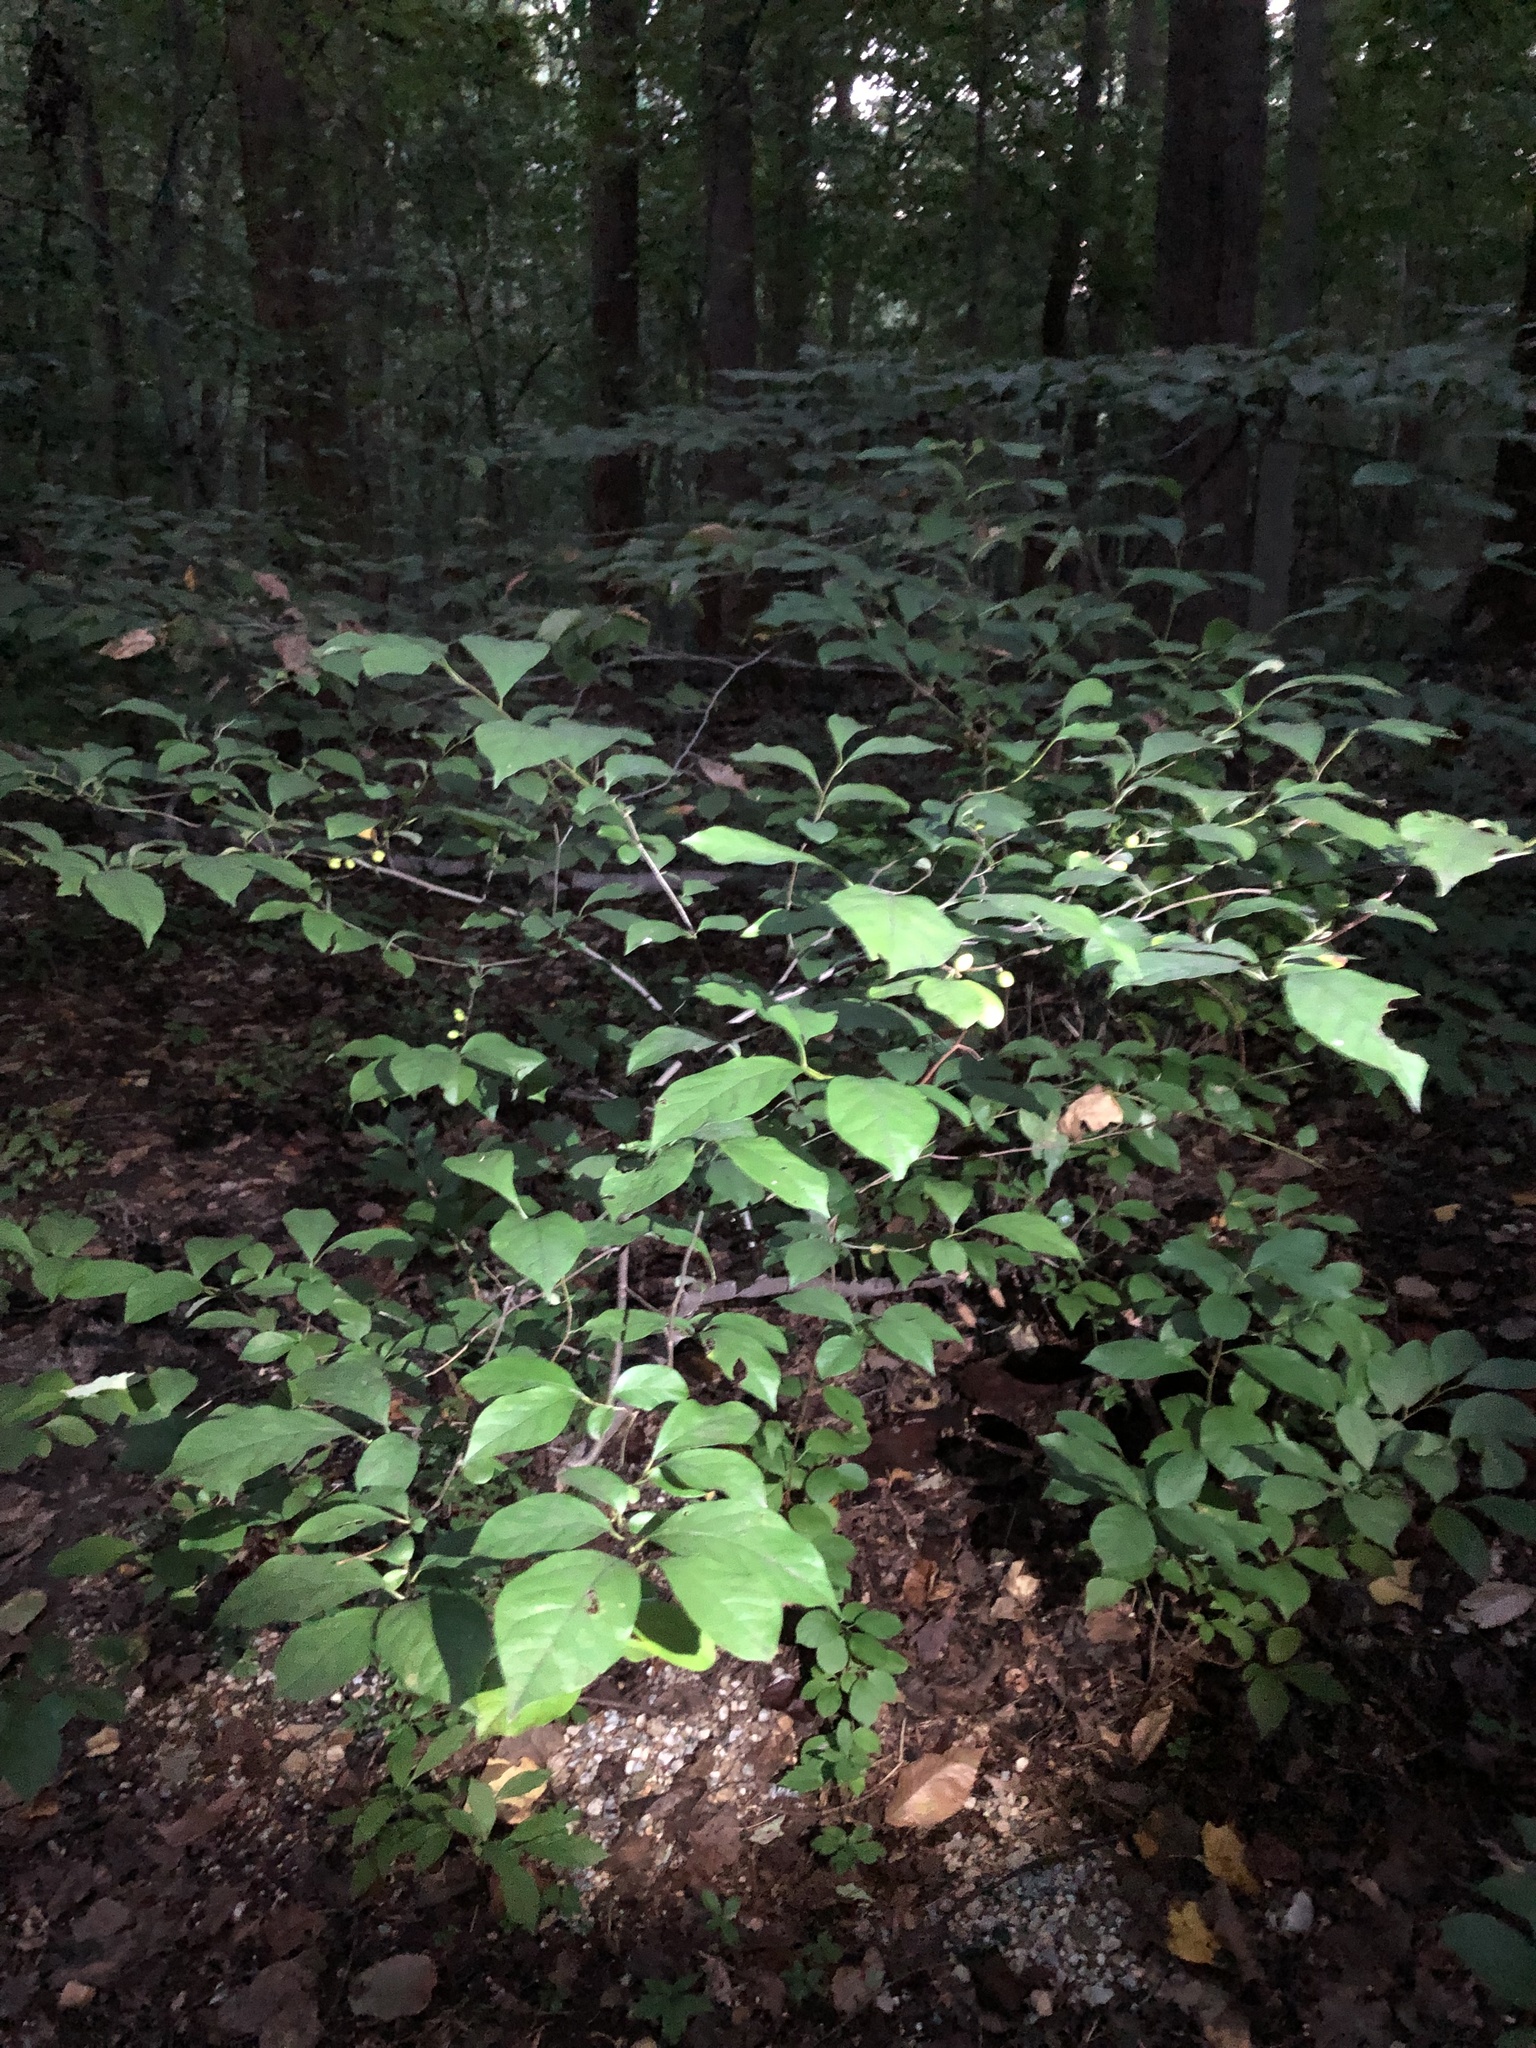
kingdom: Plantae
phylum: Tracheophyta
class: Magnoliopsida
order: Laurales
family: Lauraceae
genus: Lindera
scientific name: Lindera benzoin
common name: Spicebush
